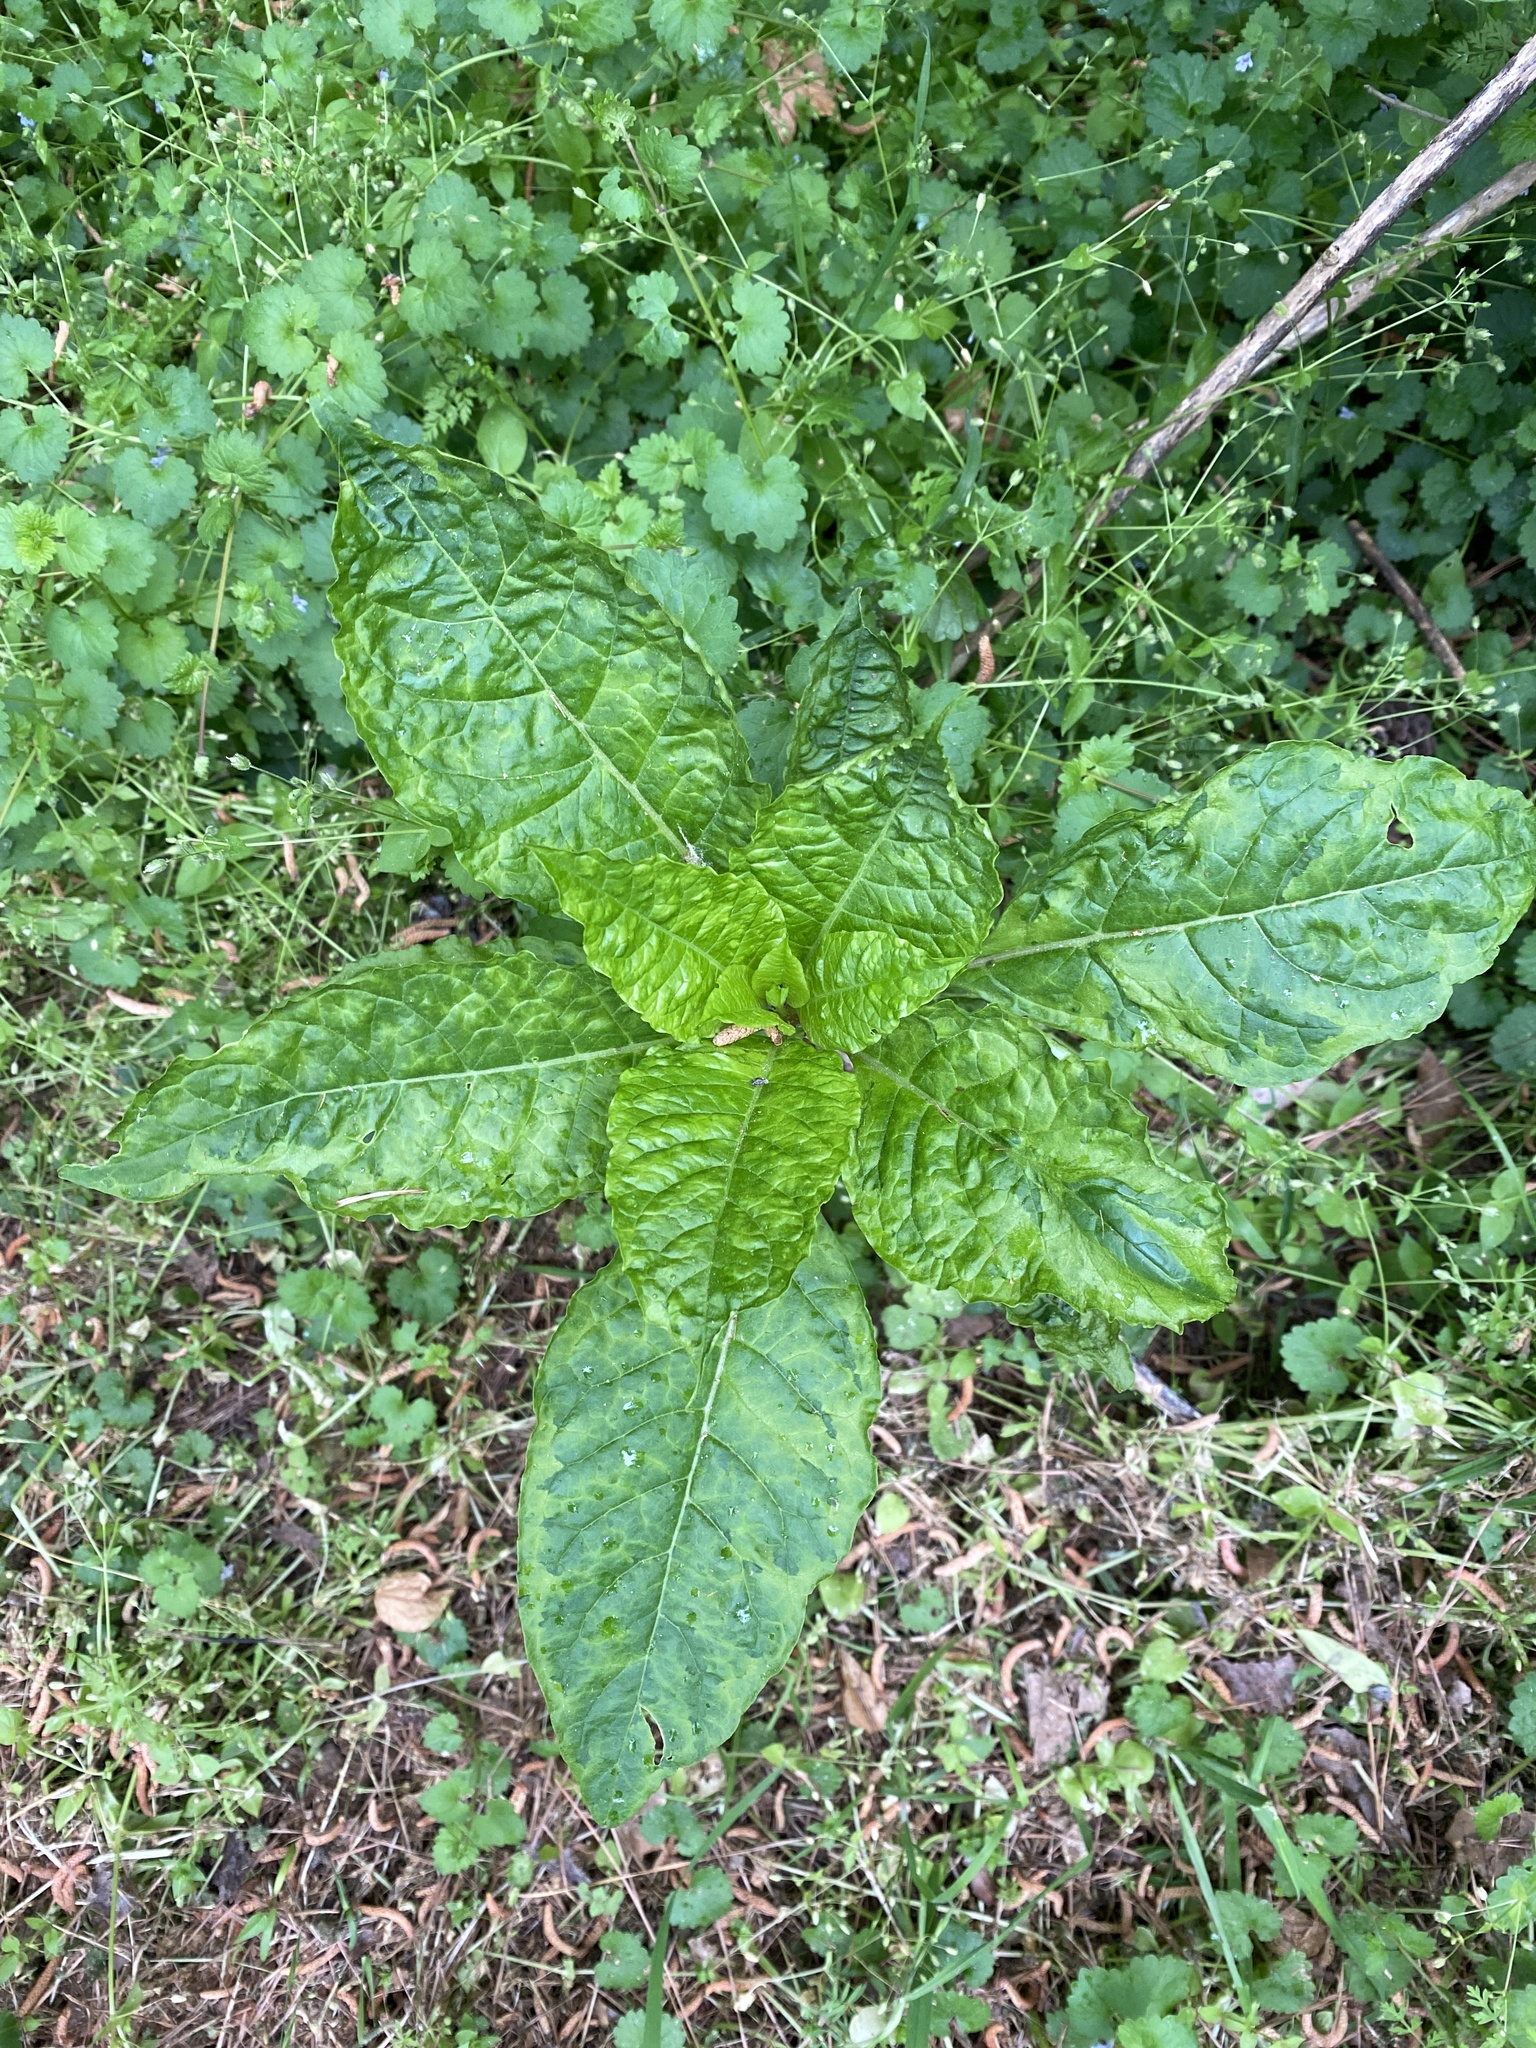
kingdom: Plantae
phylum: Tracheophyta
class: Magnoliopsida
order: Caryophyllales
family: Phytolaccaceae
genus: Phytolacca
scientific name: Phytolacca americana
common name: American pokeweed
